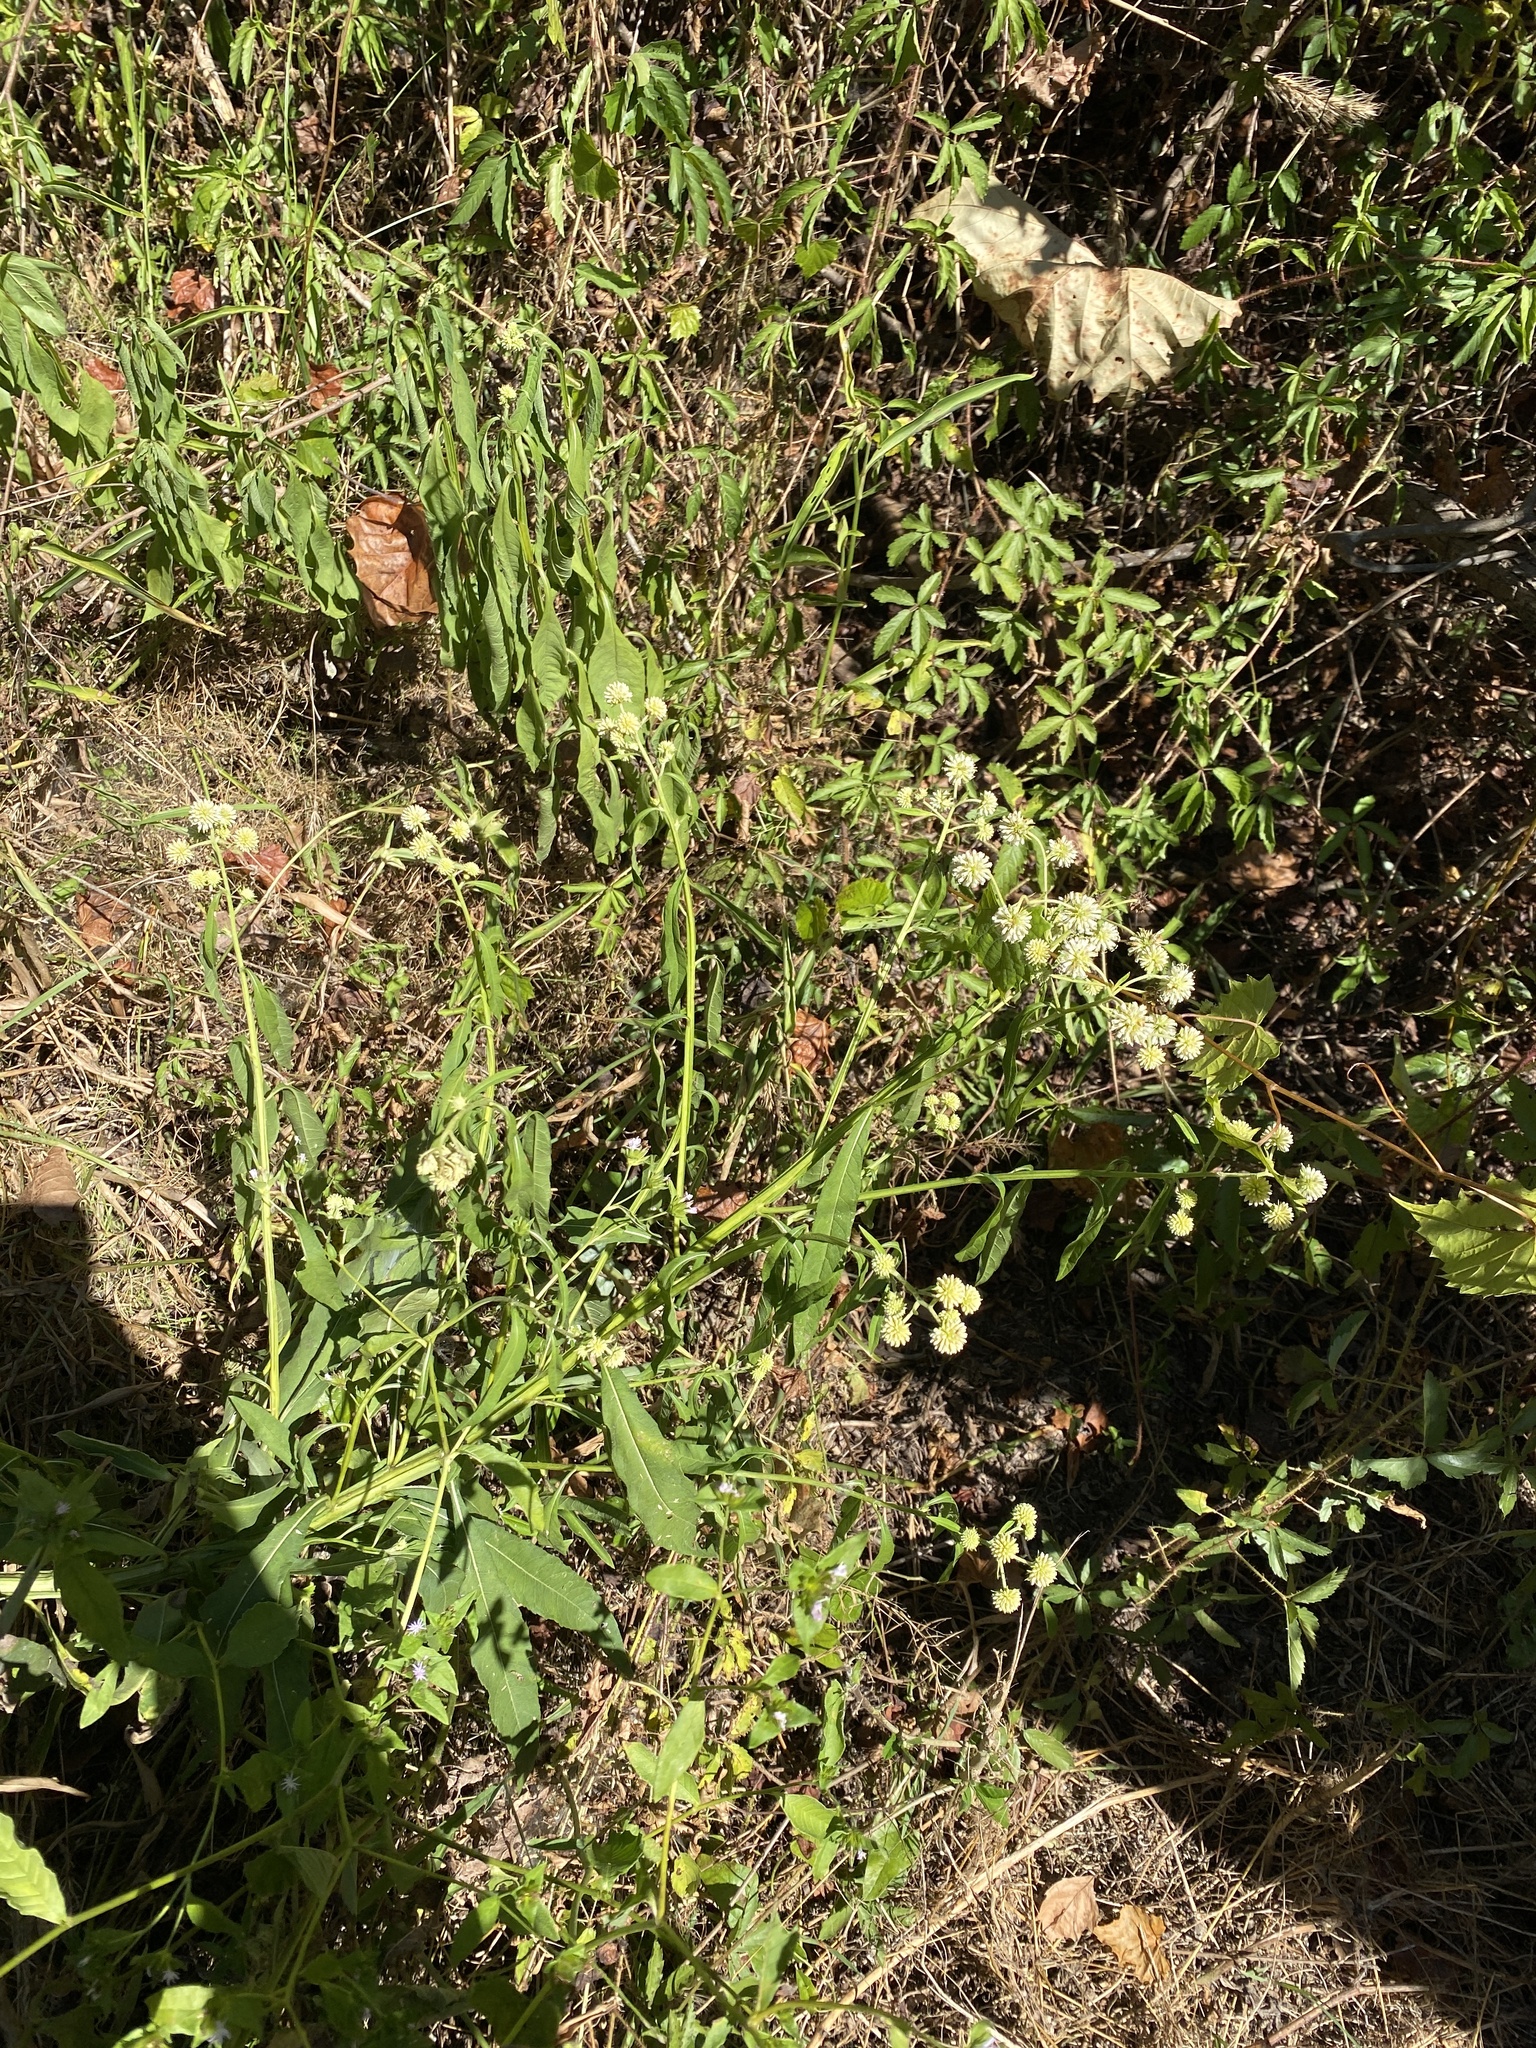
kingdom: Plantae
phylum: Tracheophyta
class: Magnoliopsida
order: Asterales
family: Asteraceae
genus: Verbesina
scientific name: Verbesina walteri
